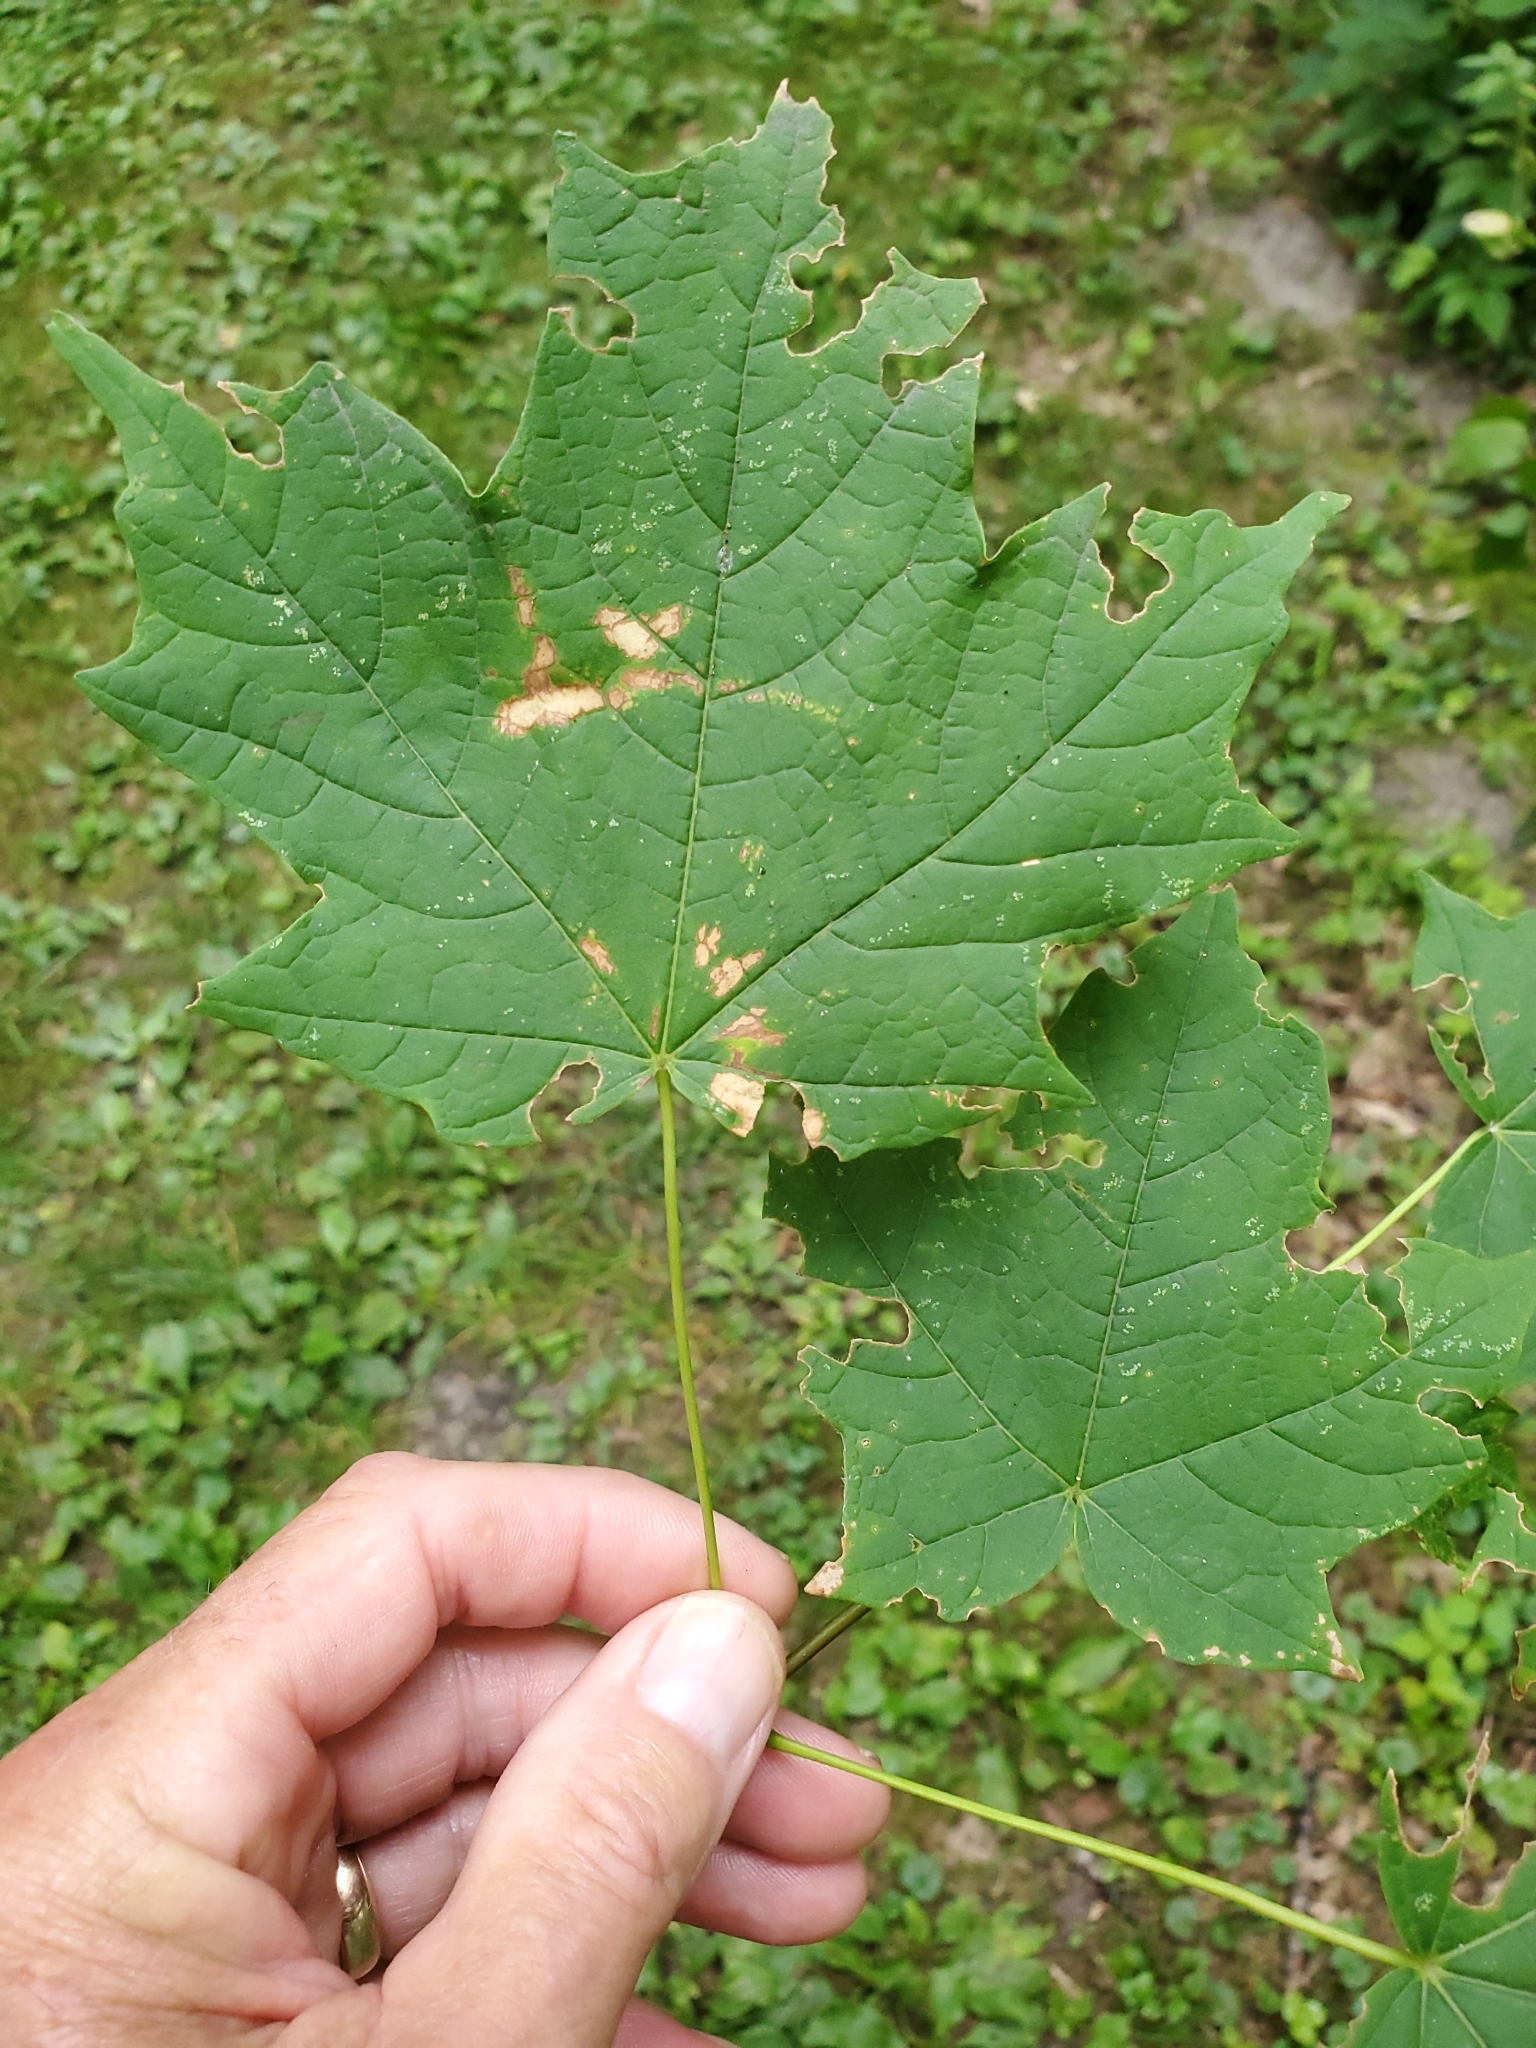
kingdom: Plantae
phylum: Tracheophyta
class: Magnoliopsida
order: Sapindales
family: Sapindaceae
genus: Acer
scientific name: Acer nigrum
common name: Black maple
